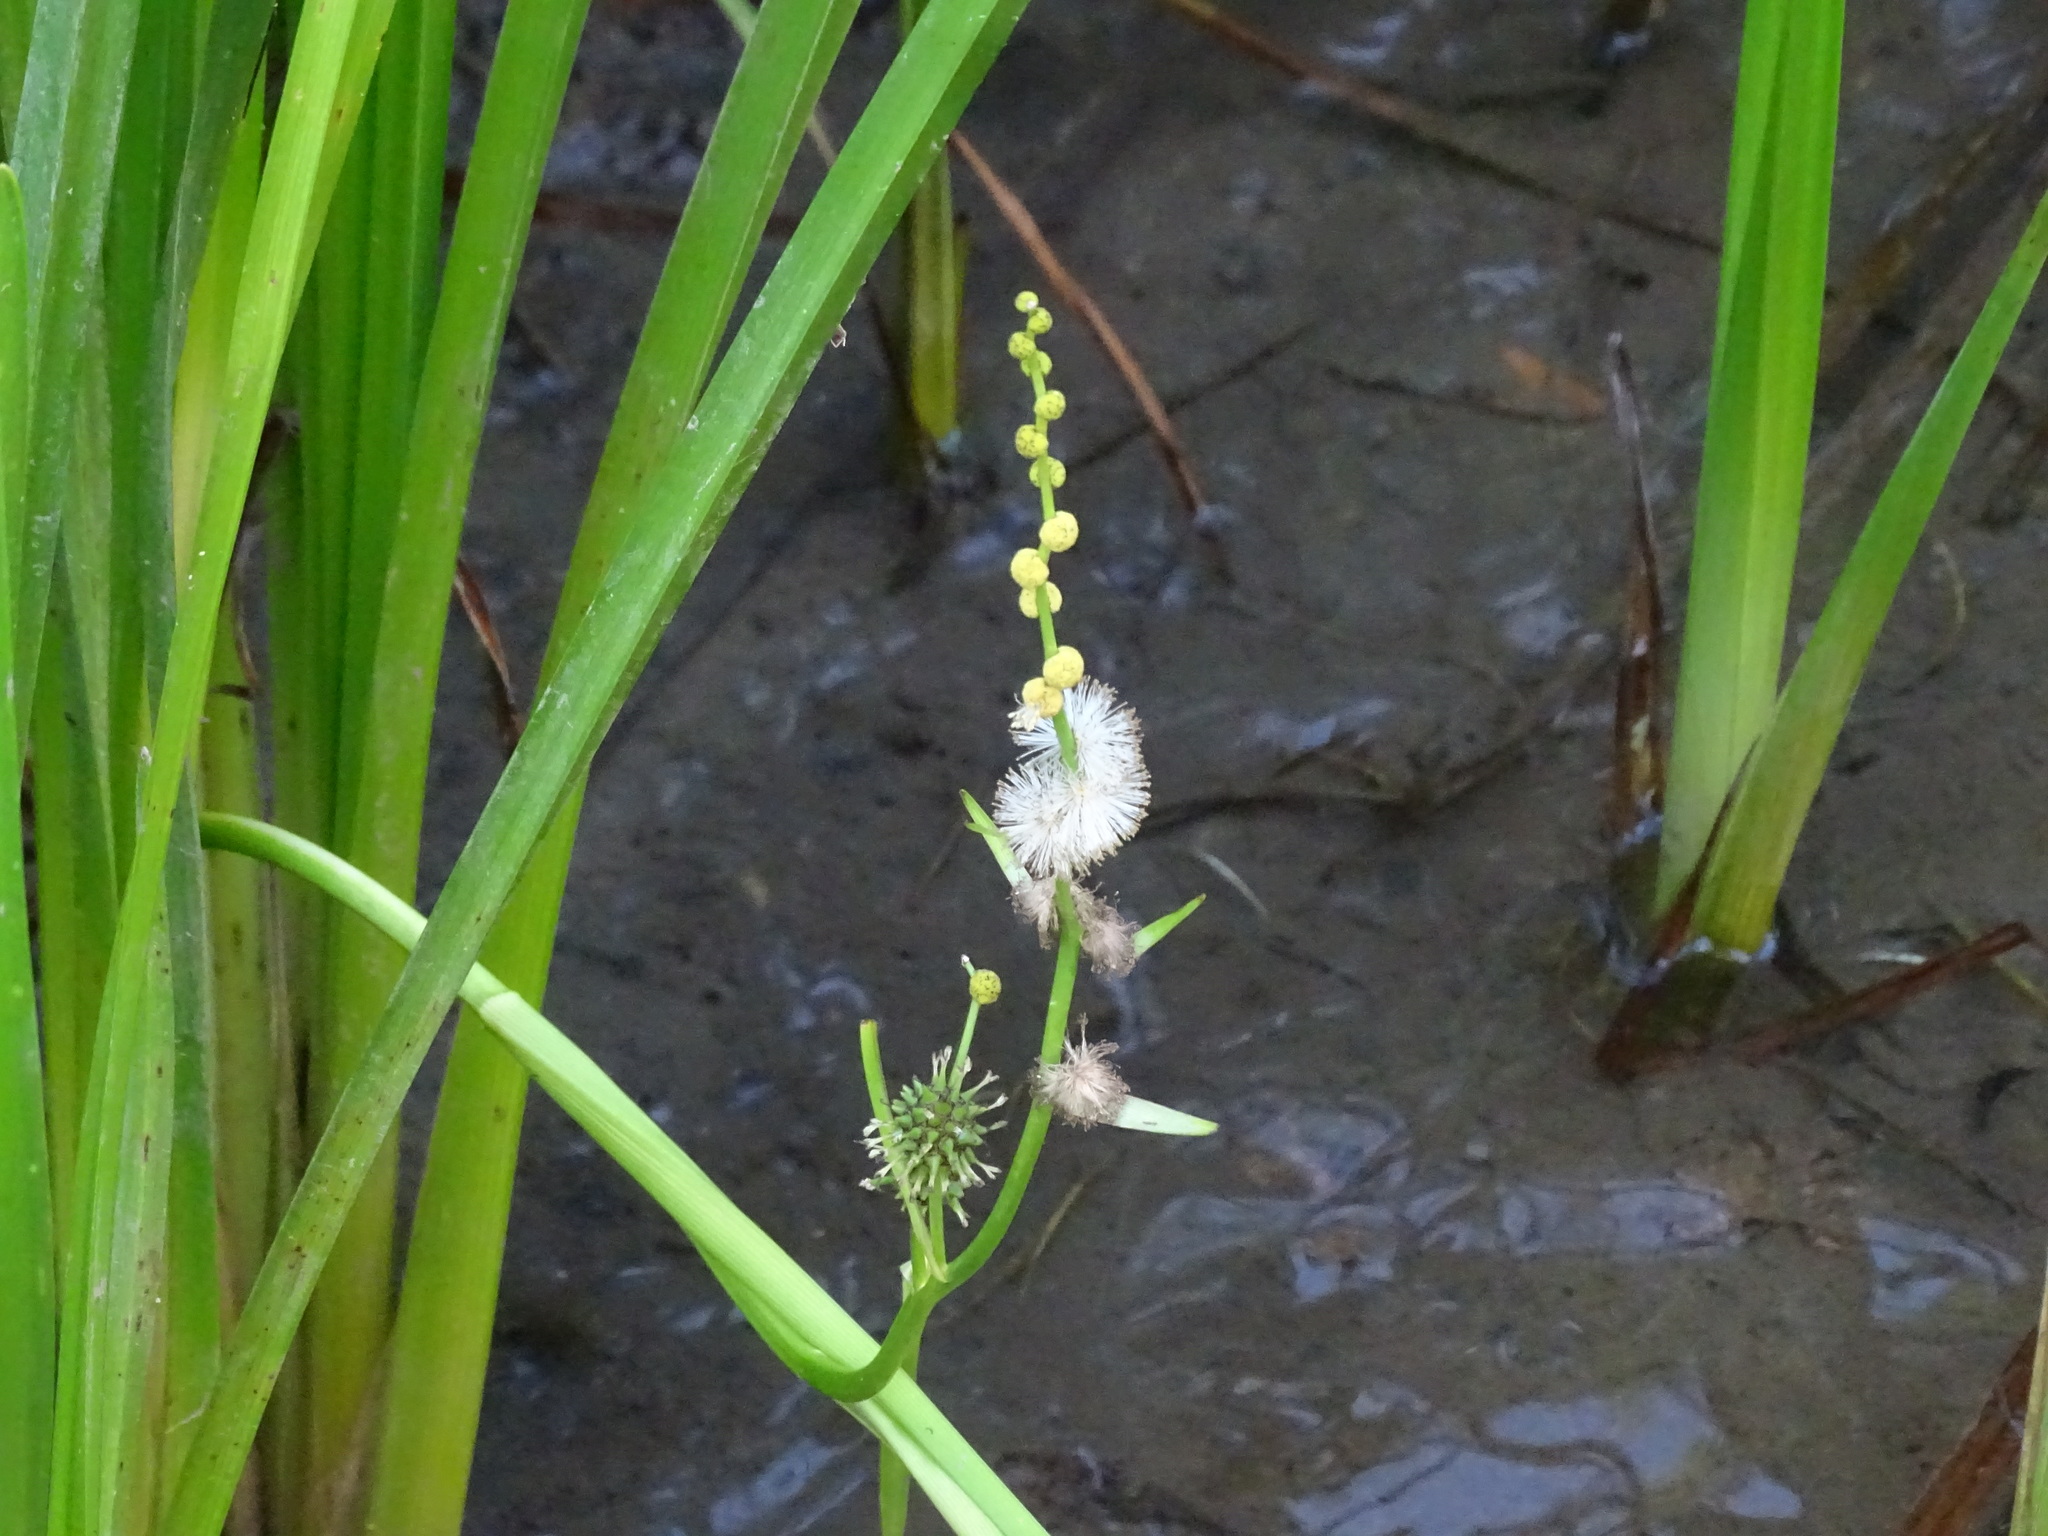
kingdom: Plantae
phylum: Tracheophyta
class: Liliopsida
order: Poales
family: Typhaceae
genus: Sparganium
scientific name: Sparganium eurycarpum
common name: Broad-fruited burreed
